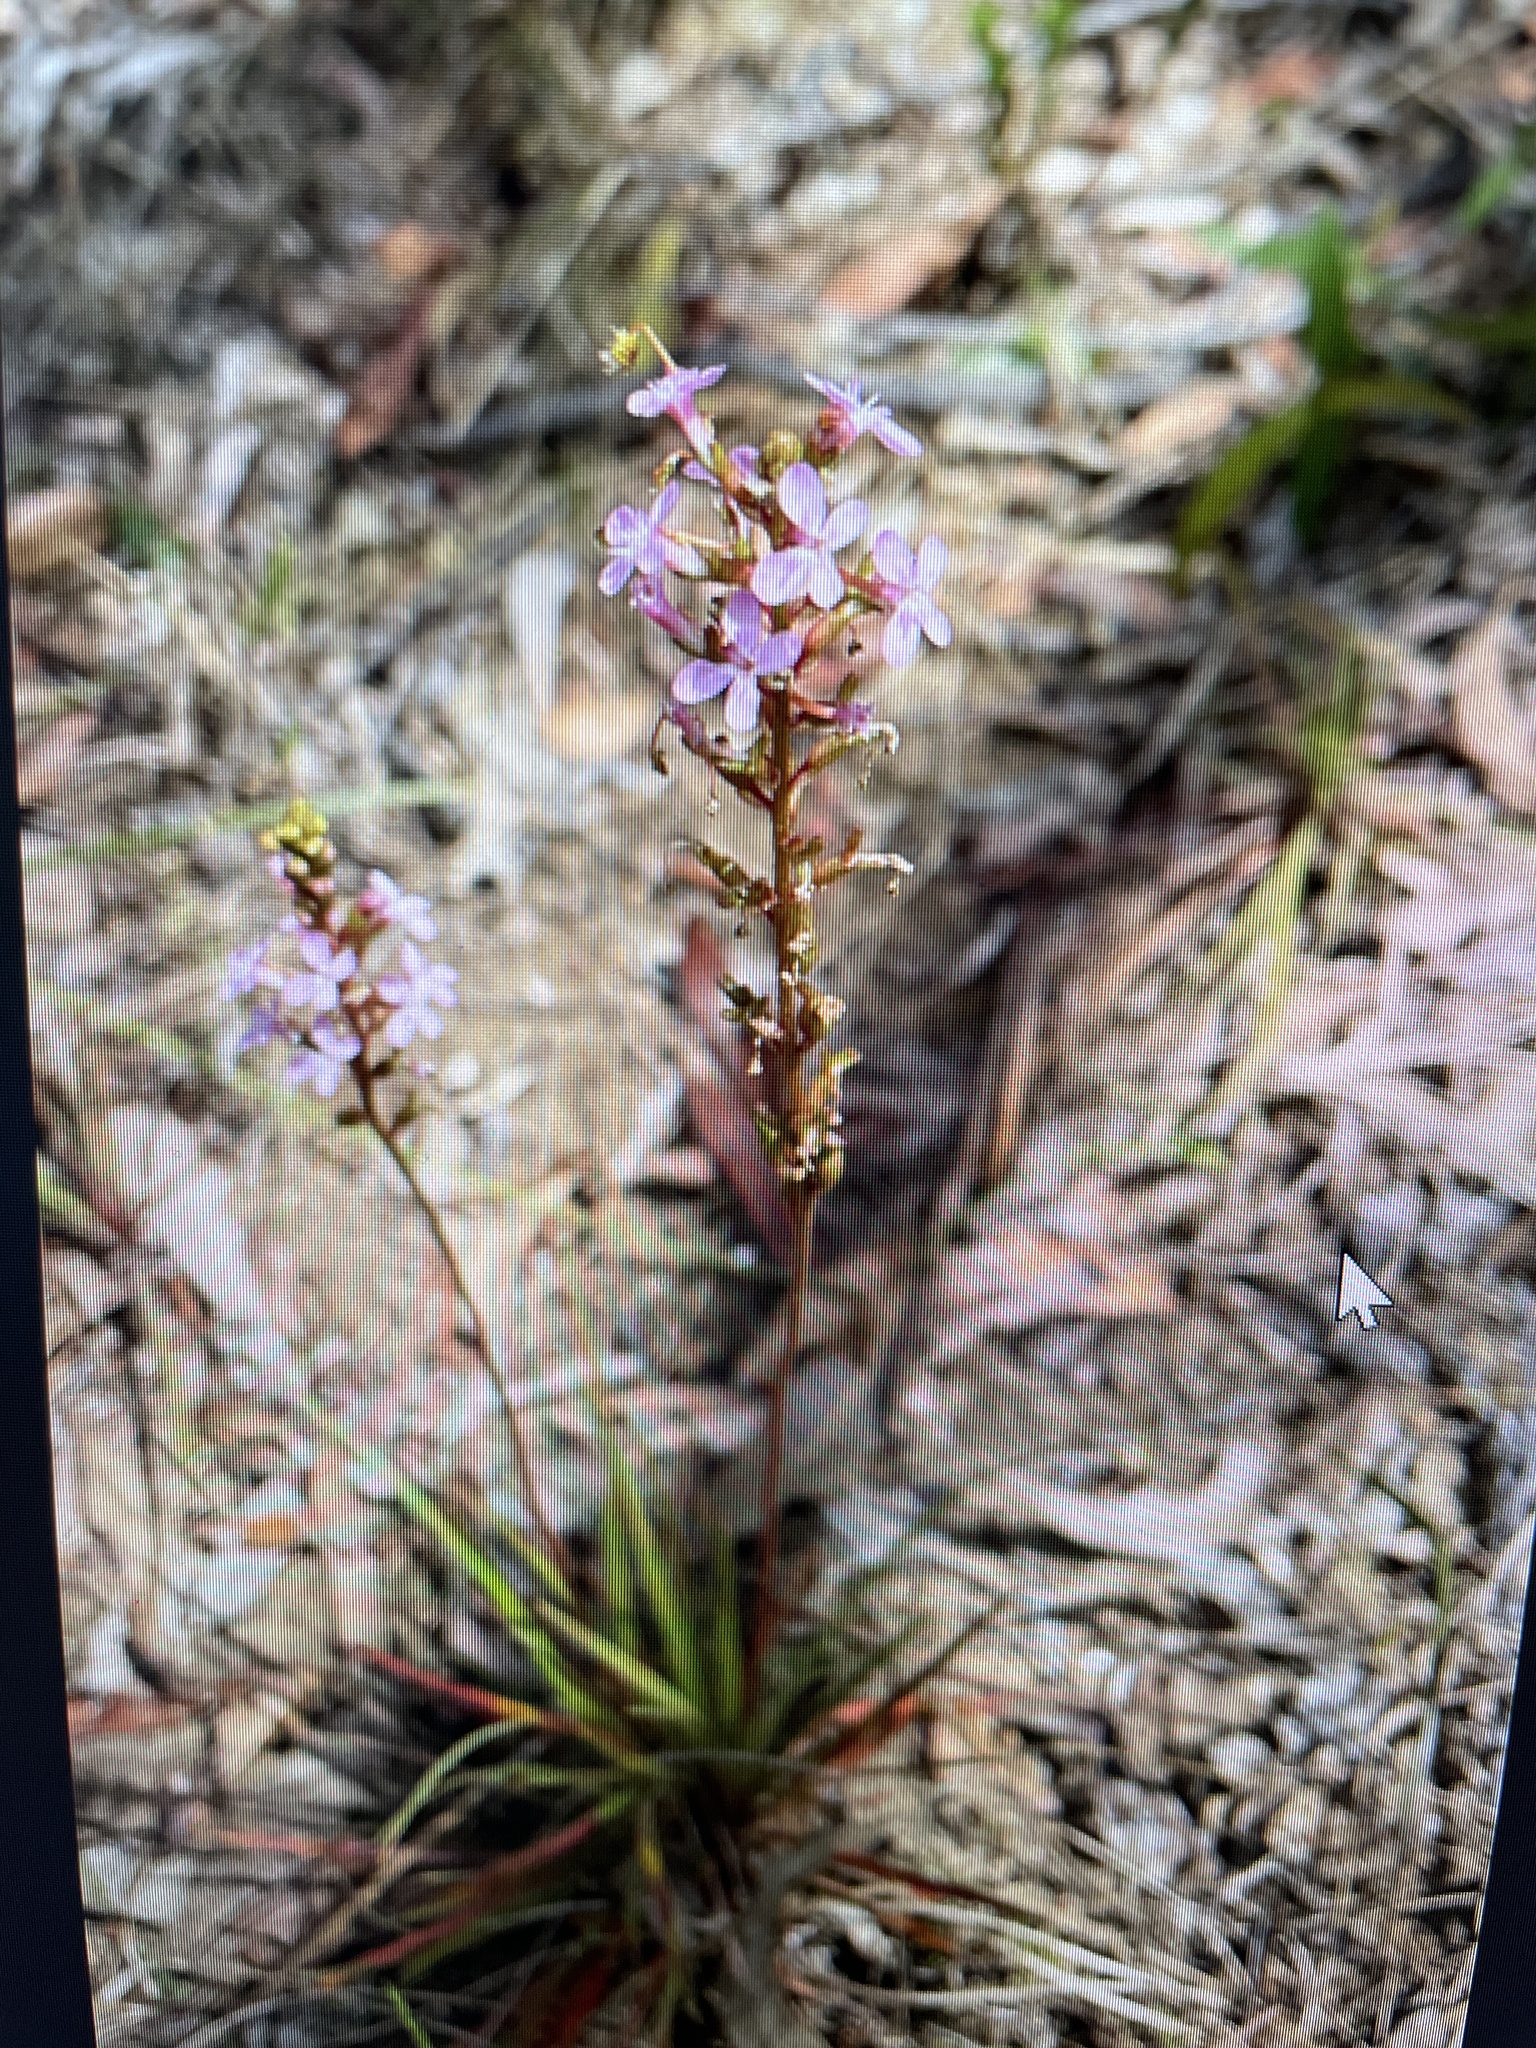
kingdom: Plantae
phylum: Tracheophyta
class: Magnoliopsida
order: Asterales
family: Stylidiaceae
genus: Stylidium
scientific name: Stylidium graminifolium
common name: Grass triggerplant
